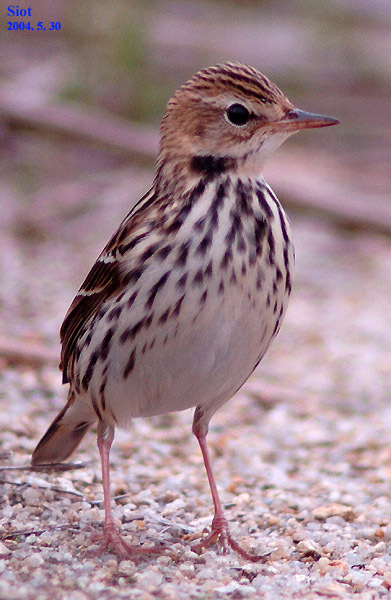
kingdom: Animalia
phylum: Chordata
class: Aves
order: Passeriformes
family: Motacillidae
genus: Anthus
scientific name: Anthus gustavi
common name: Pechora pipit
